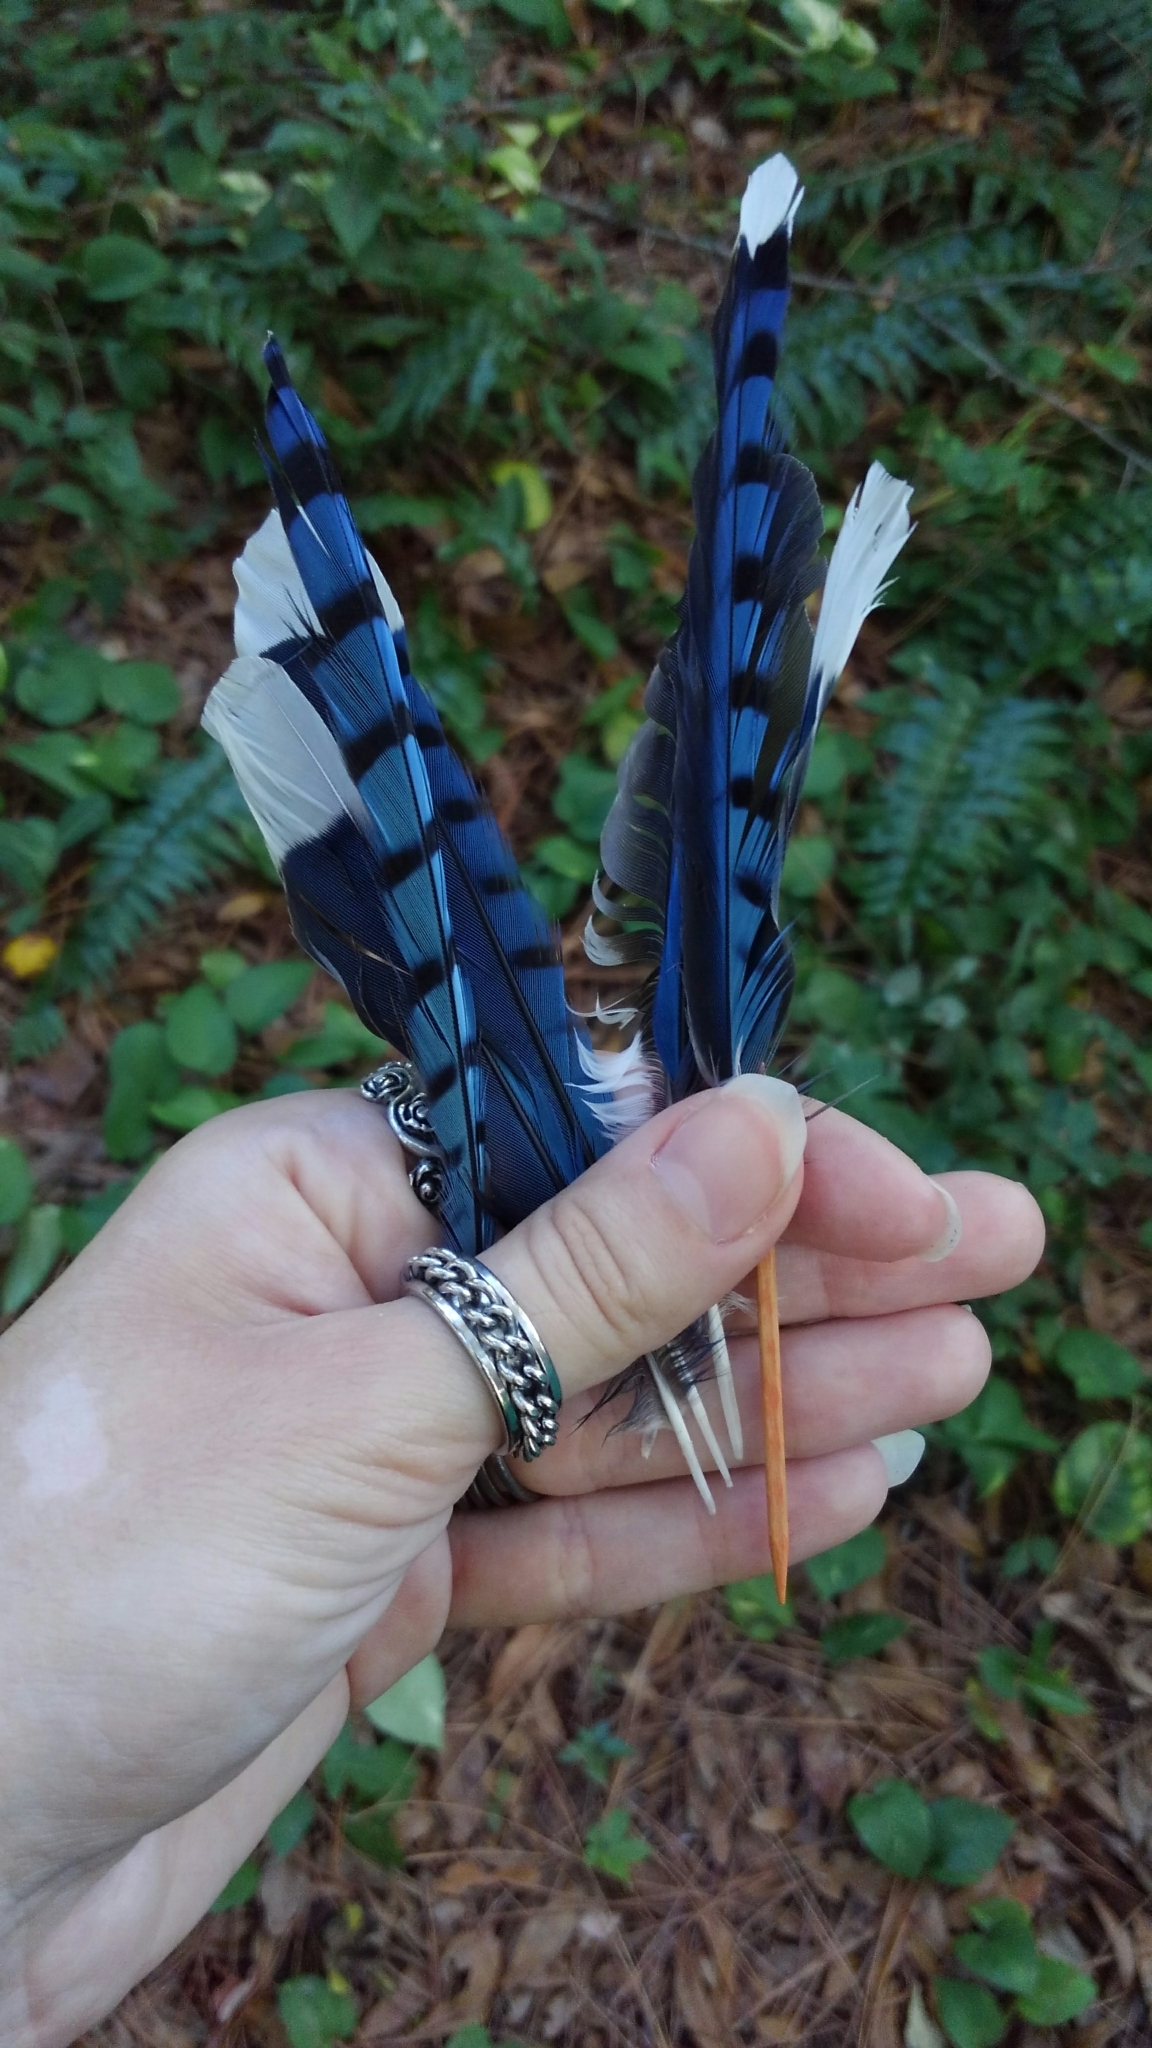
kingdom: Animalia
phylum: Chordata
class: Aves
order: Passeriformes
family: Corvidae
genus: Cyanocitta
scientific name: Cyanocitta cristata
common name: Blue jay
